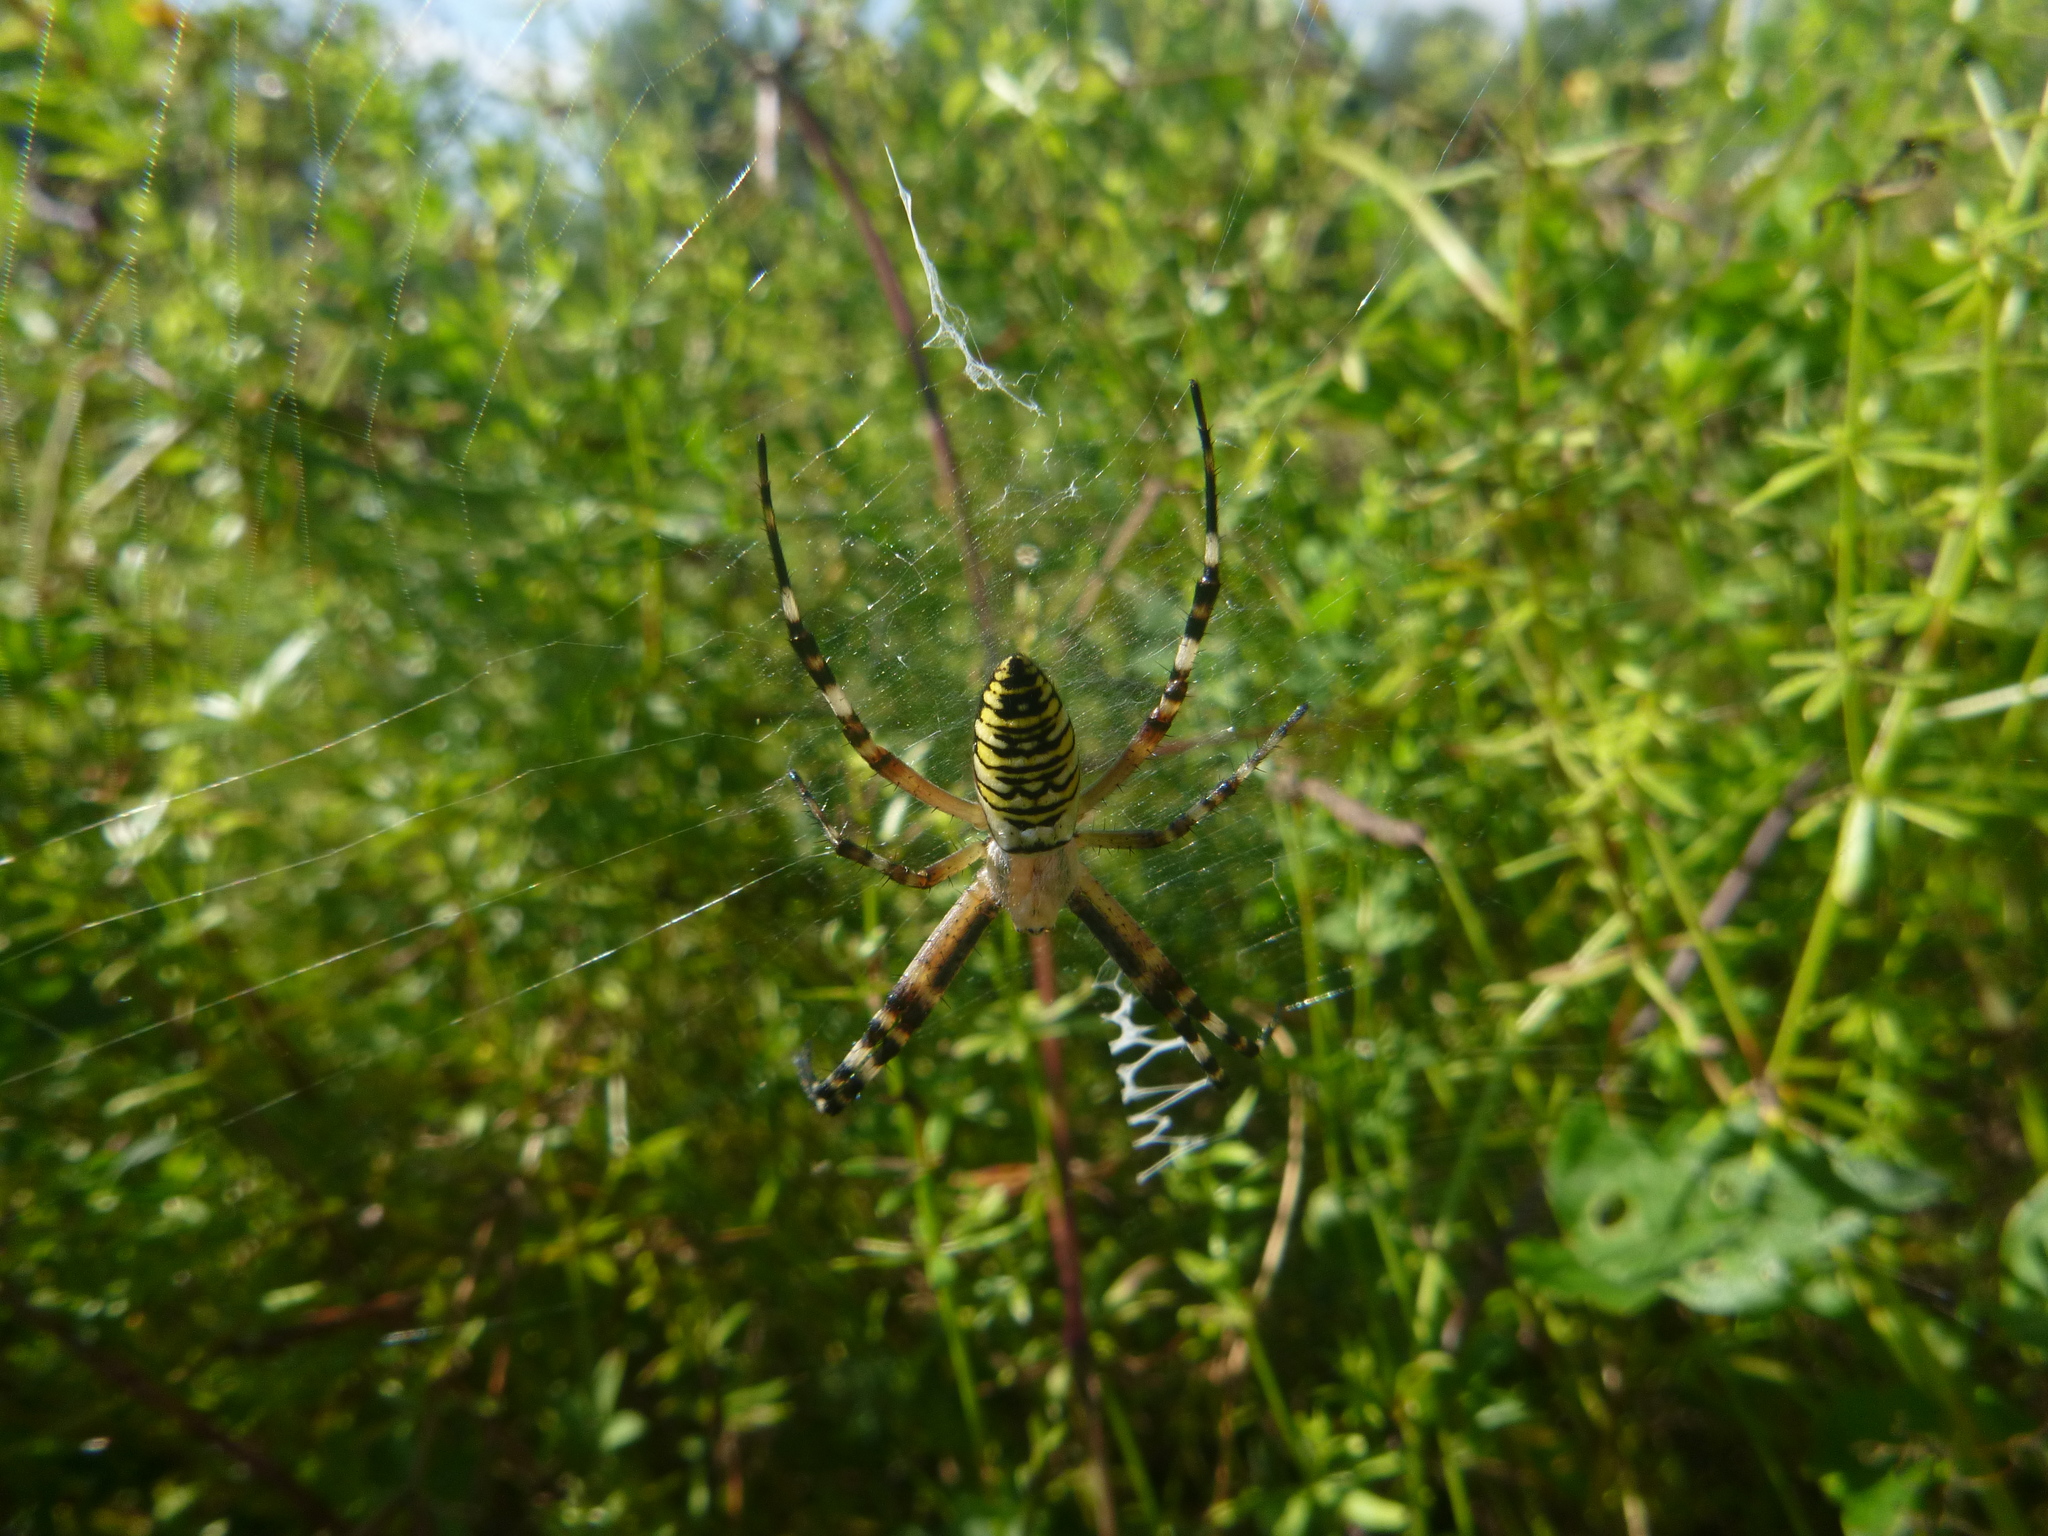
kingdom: Animalia
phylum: Arthropoda
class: Arachnida
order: Araneae
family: Araneidae
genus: Argiope
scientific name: Argiope bruennichi
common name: Wasp spider
